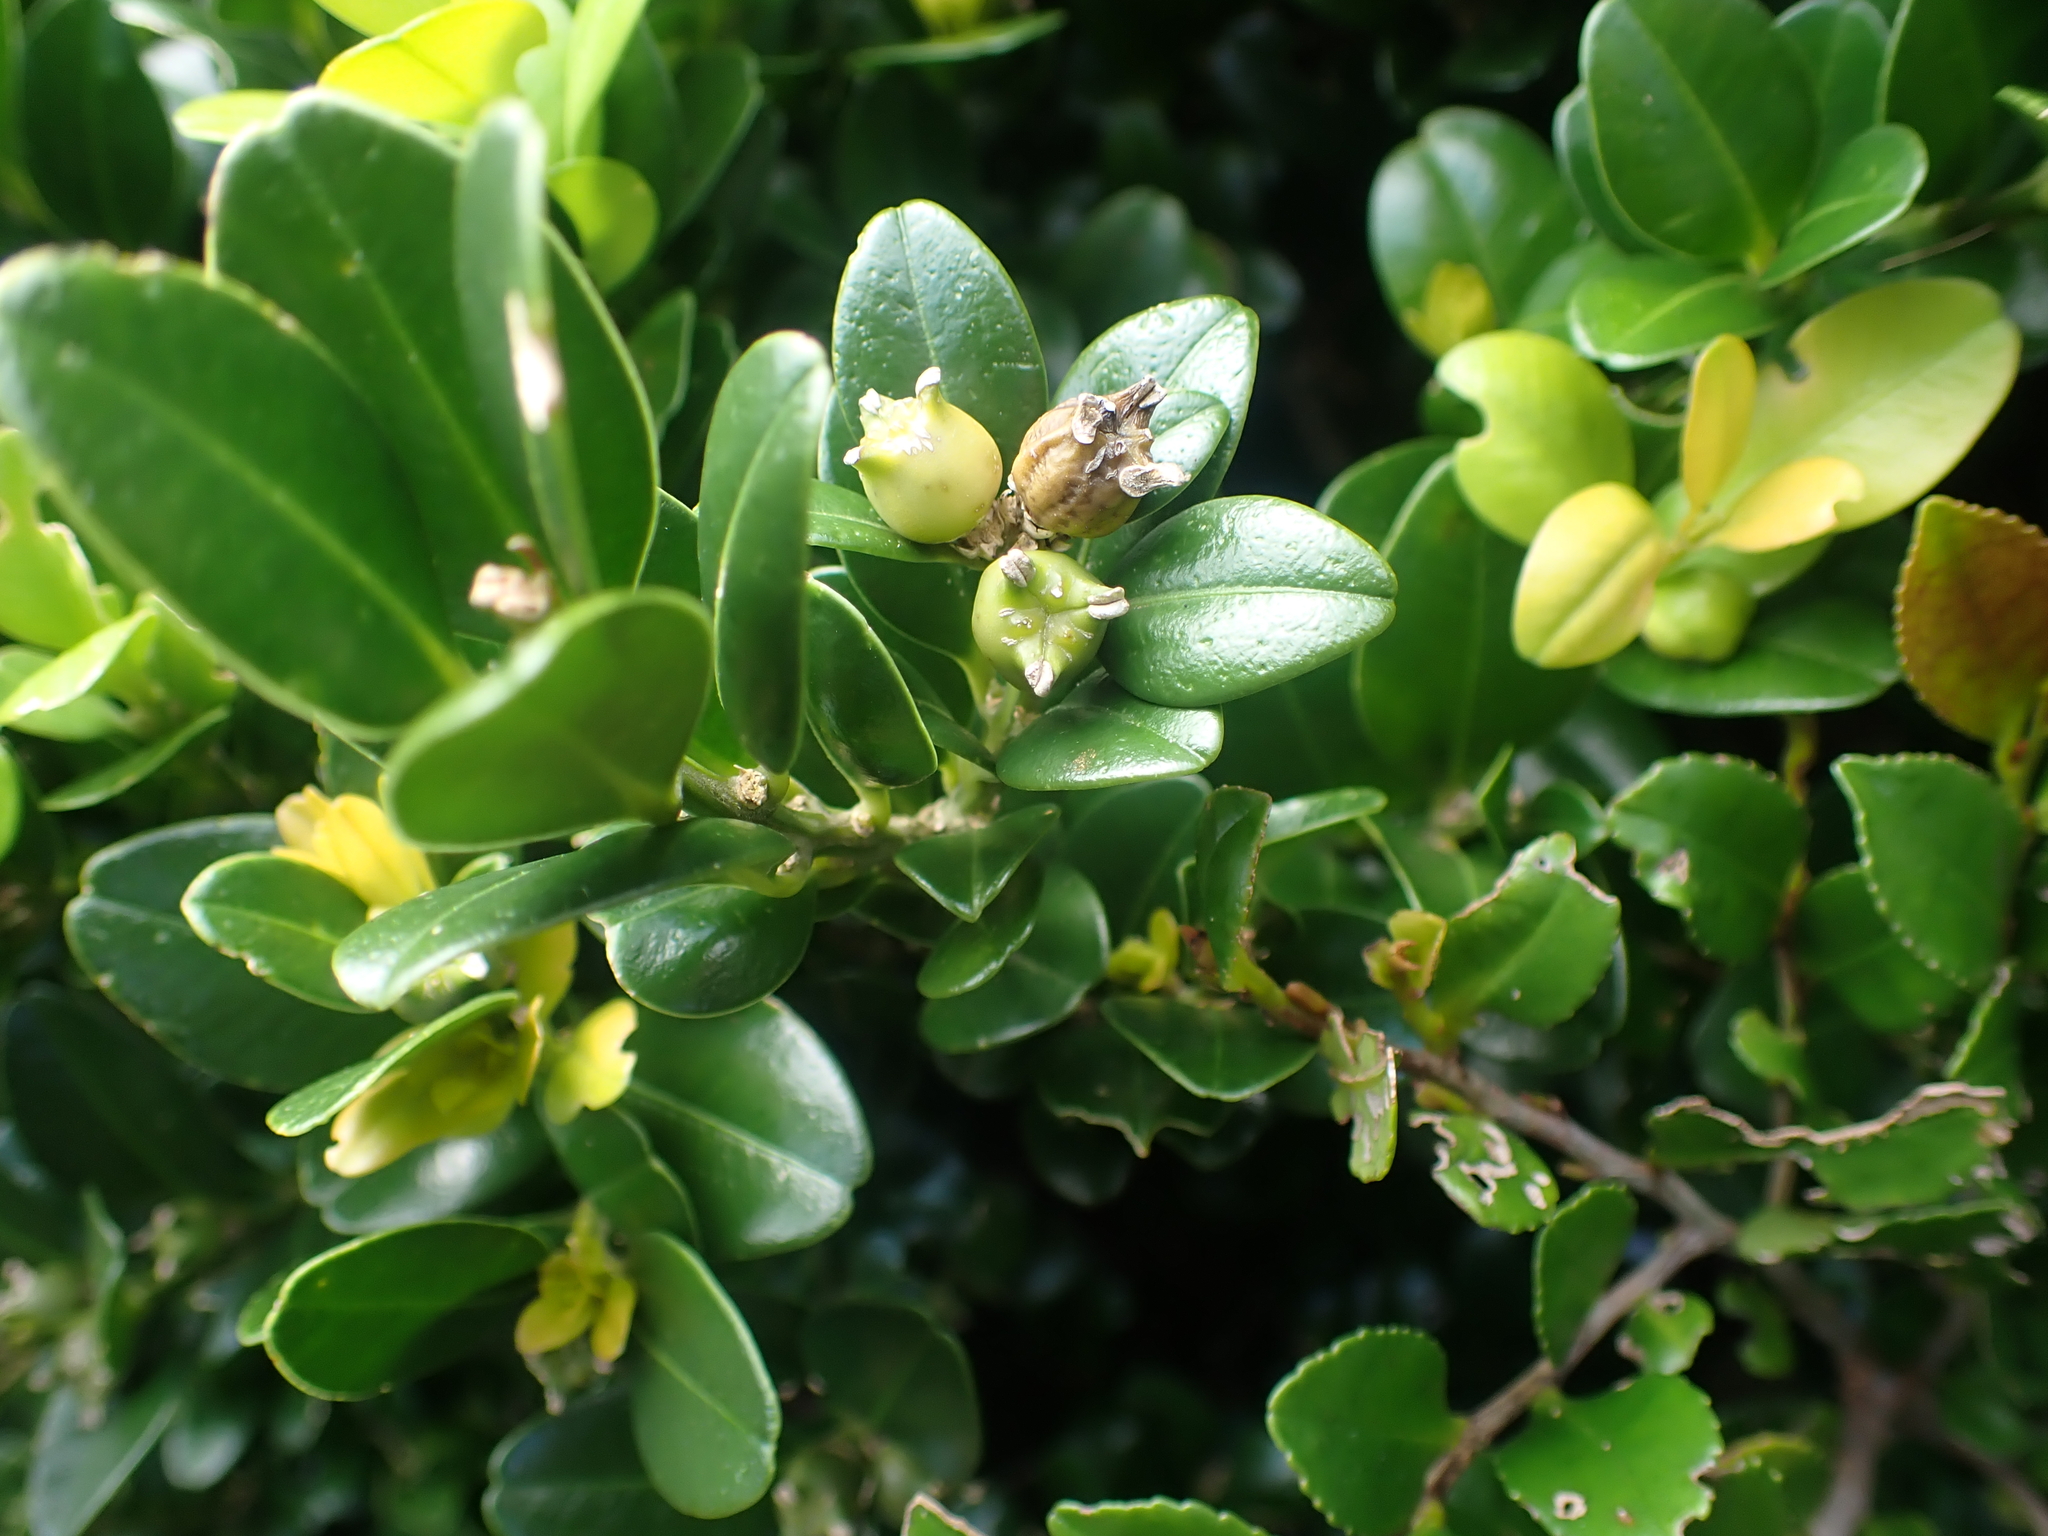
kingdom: Plantae
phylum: Tracheophyta
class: Magnoliopsida
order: Buxales
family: Buxaceae
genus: Buxus
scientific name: Buxus liukiuensis
